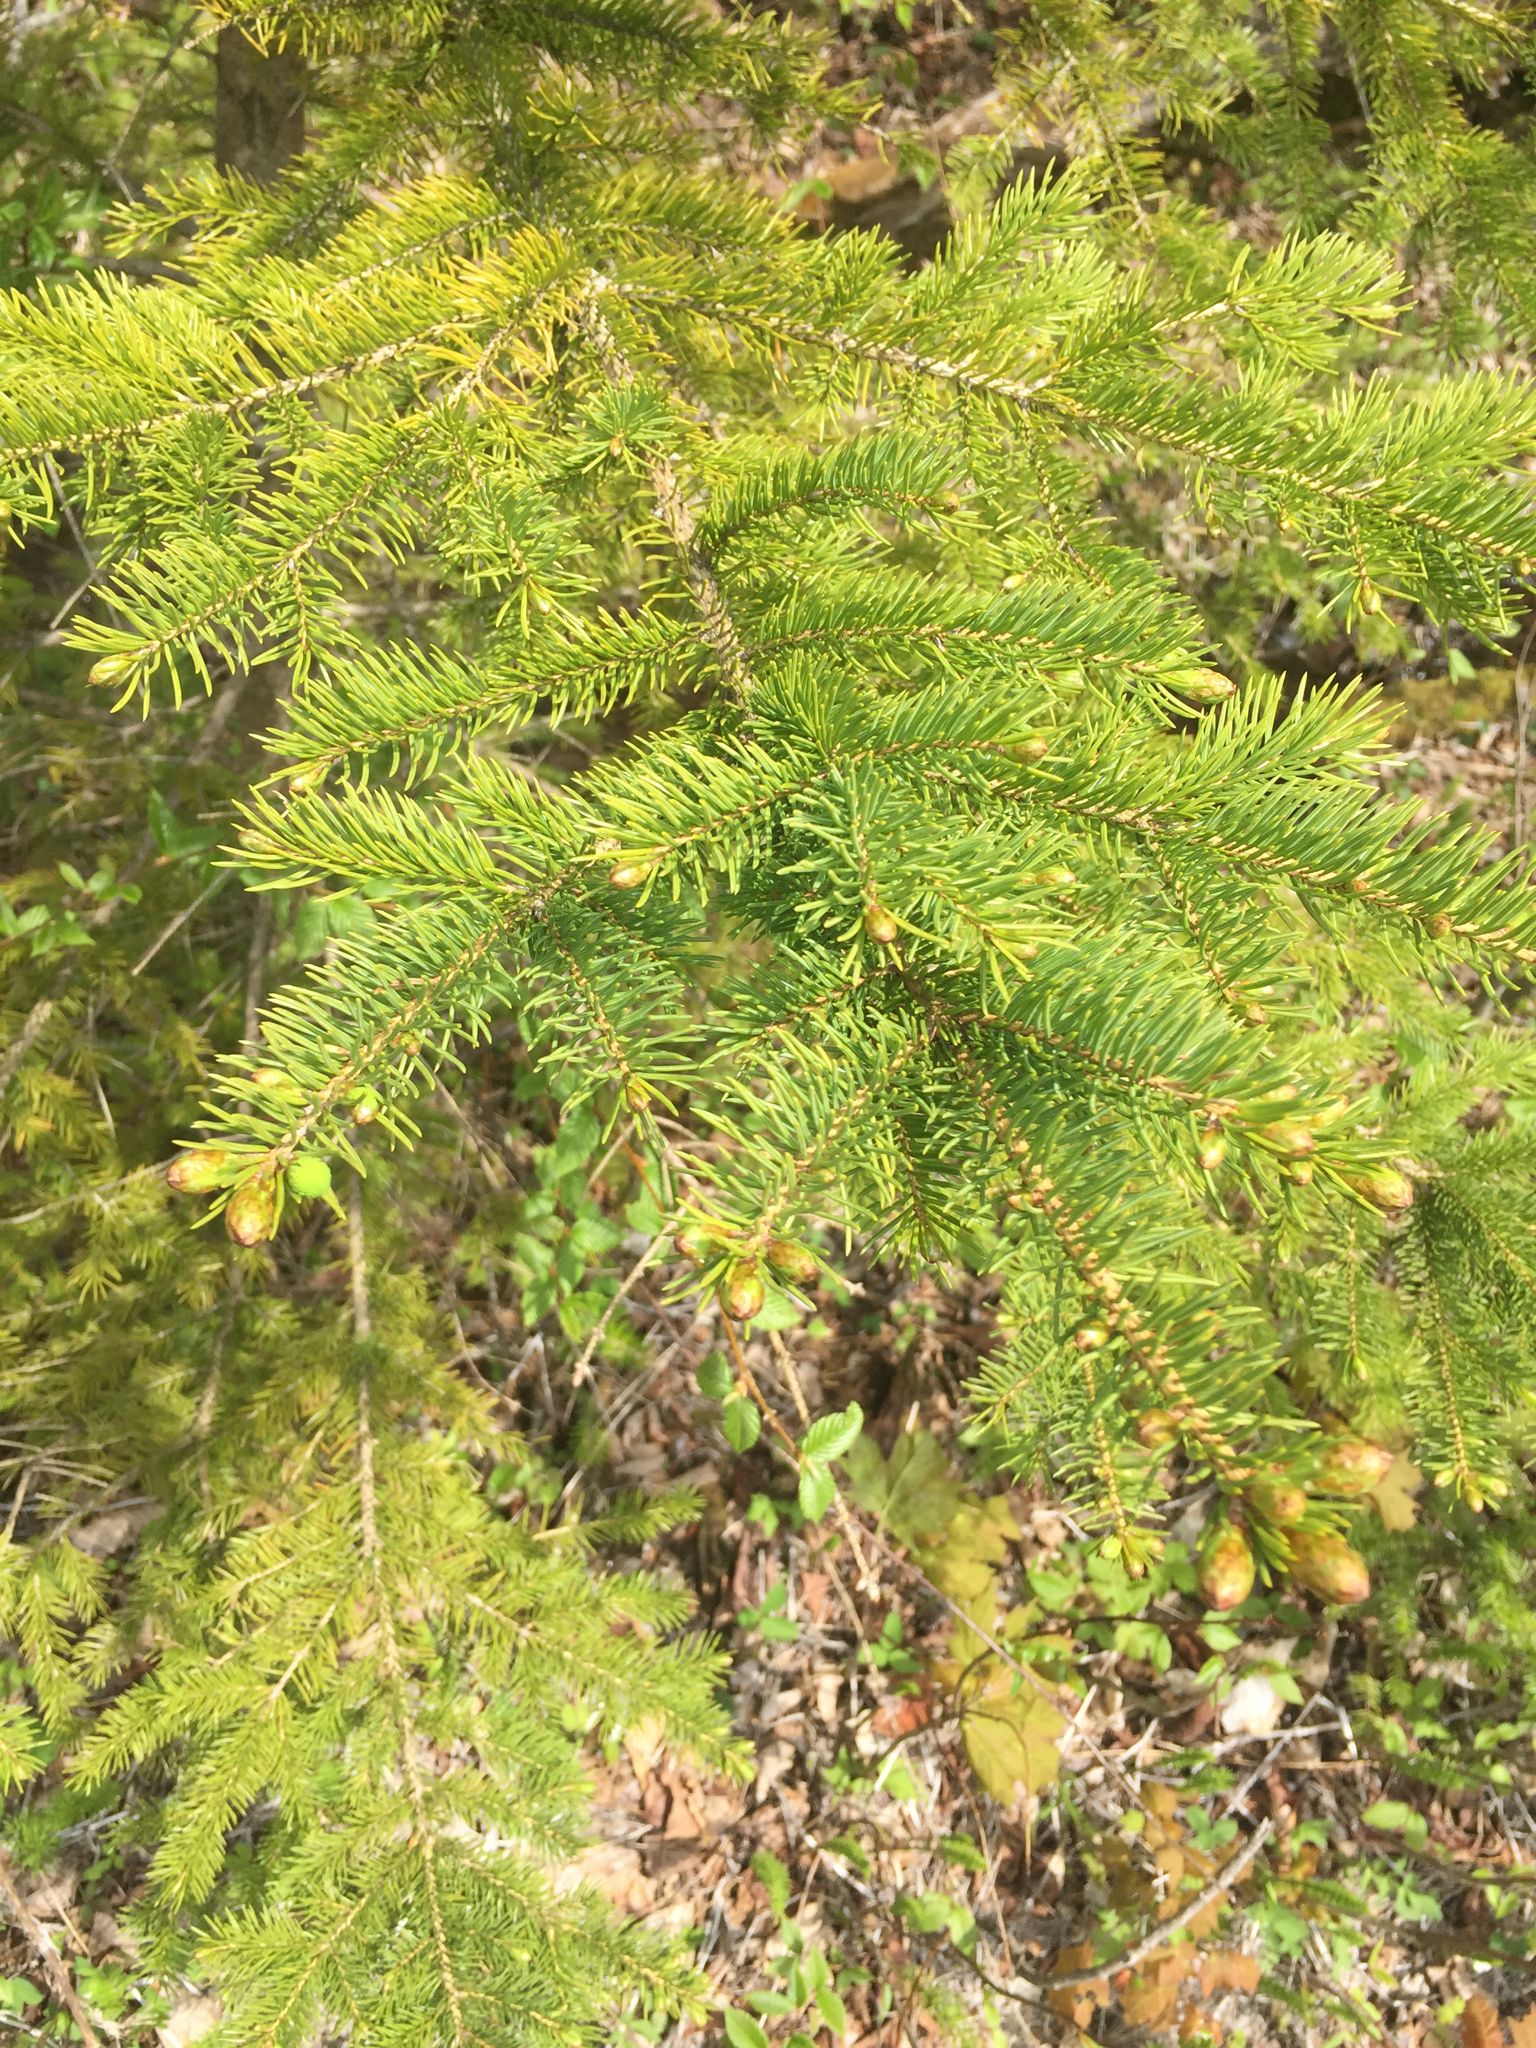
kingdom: Plantae
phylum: Tracheophyta
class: Pinopsida
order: Pinales
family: Pinaceae
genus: Abies
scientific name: Abies balsamea
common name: Balsam fir
